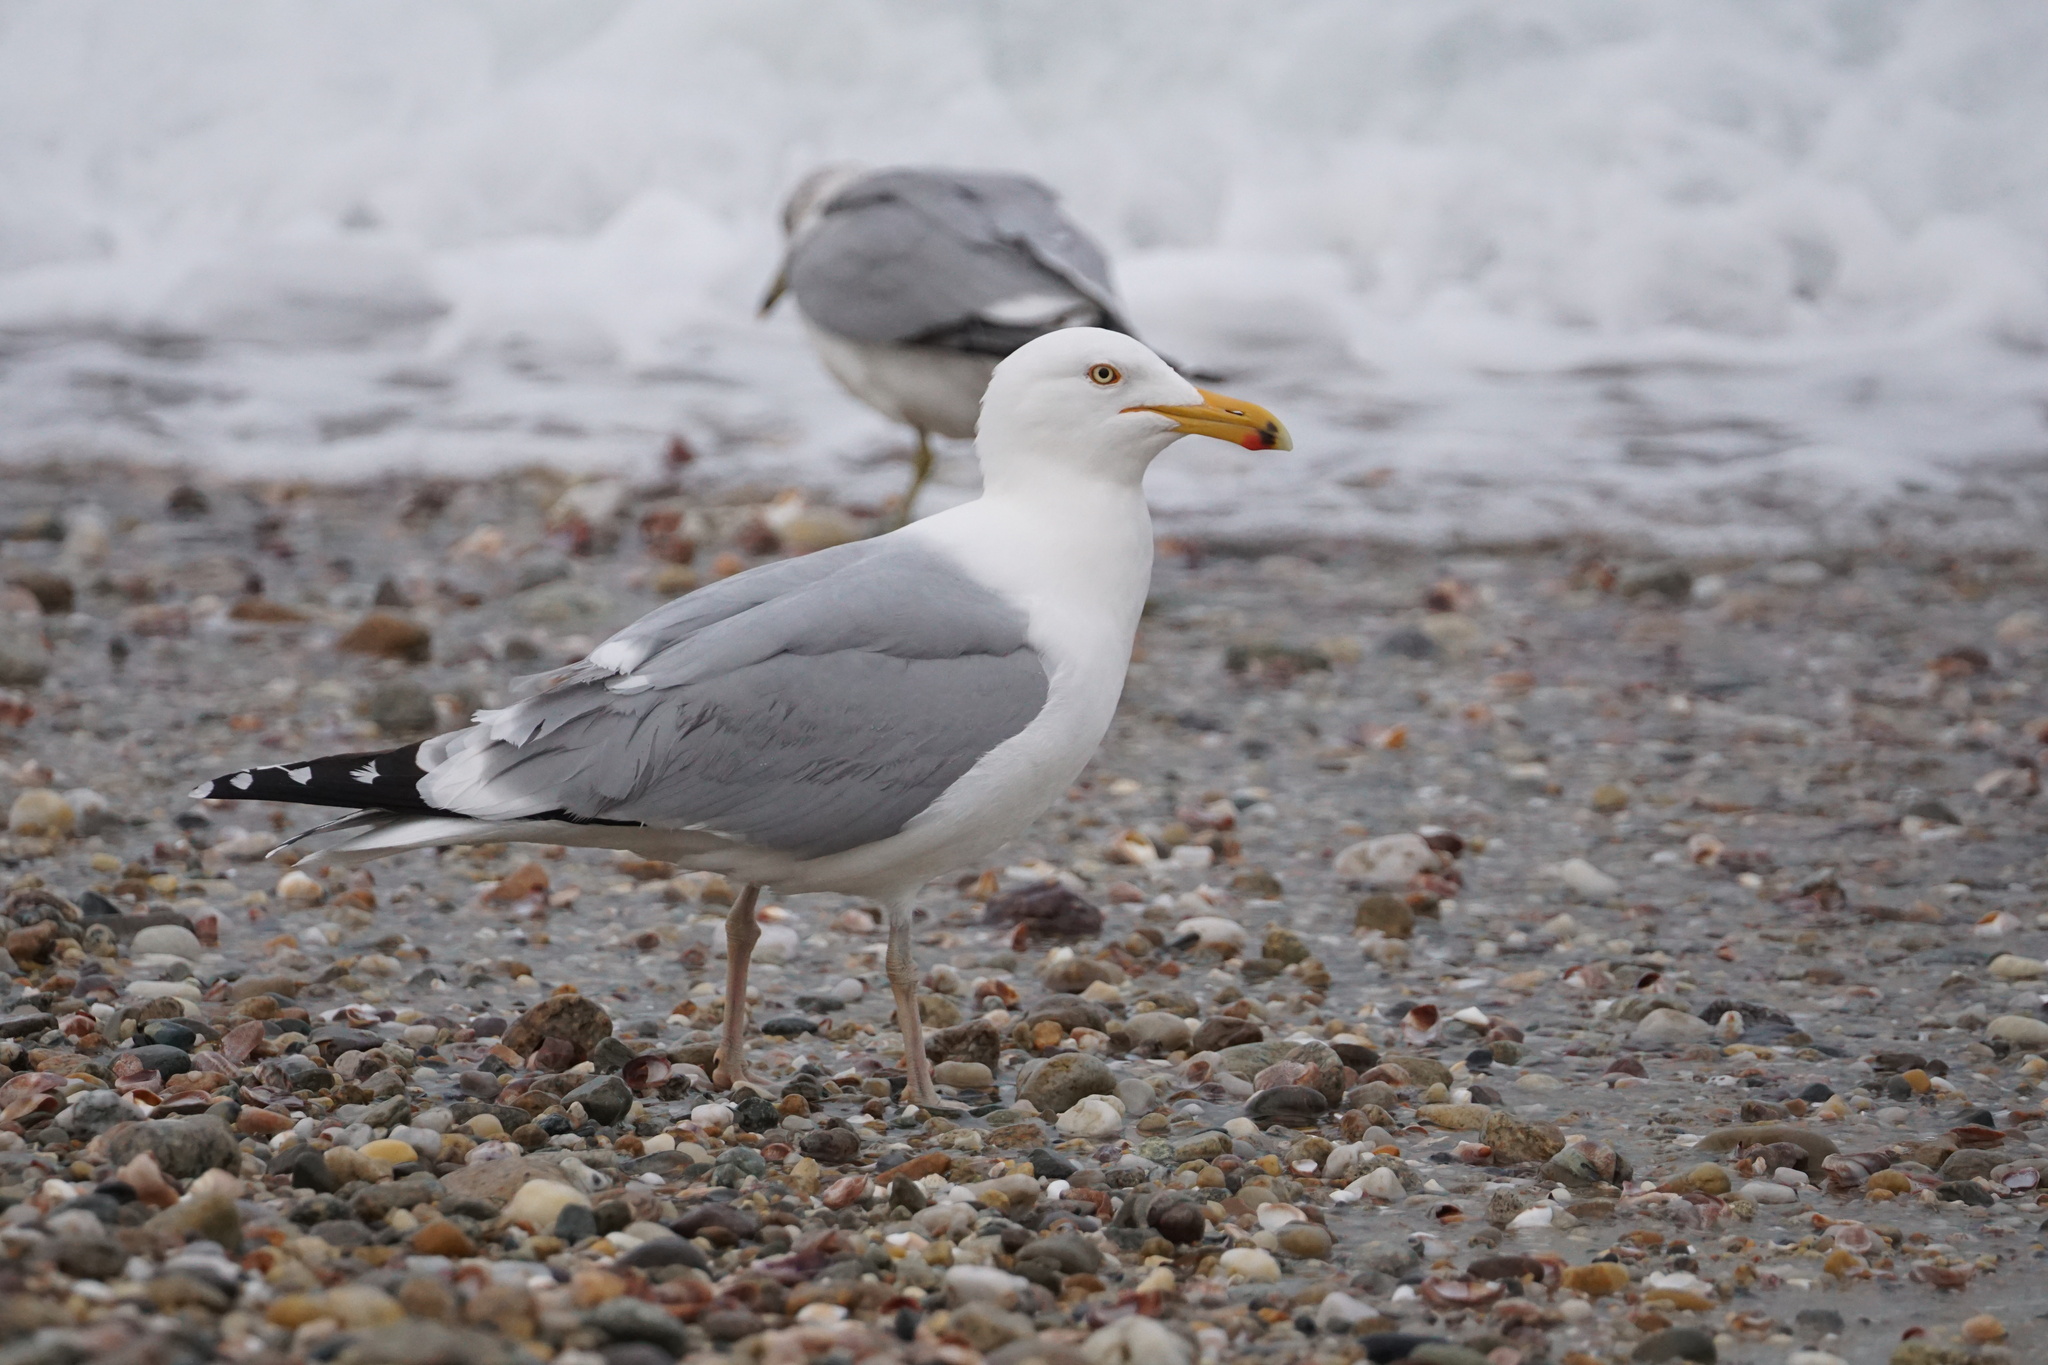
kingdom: Animalia
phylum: Chordata
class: Aves
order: Charadriiformes
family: Laridae
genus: Larus
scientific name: Larus argentatus
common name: Herring gull
